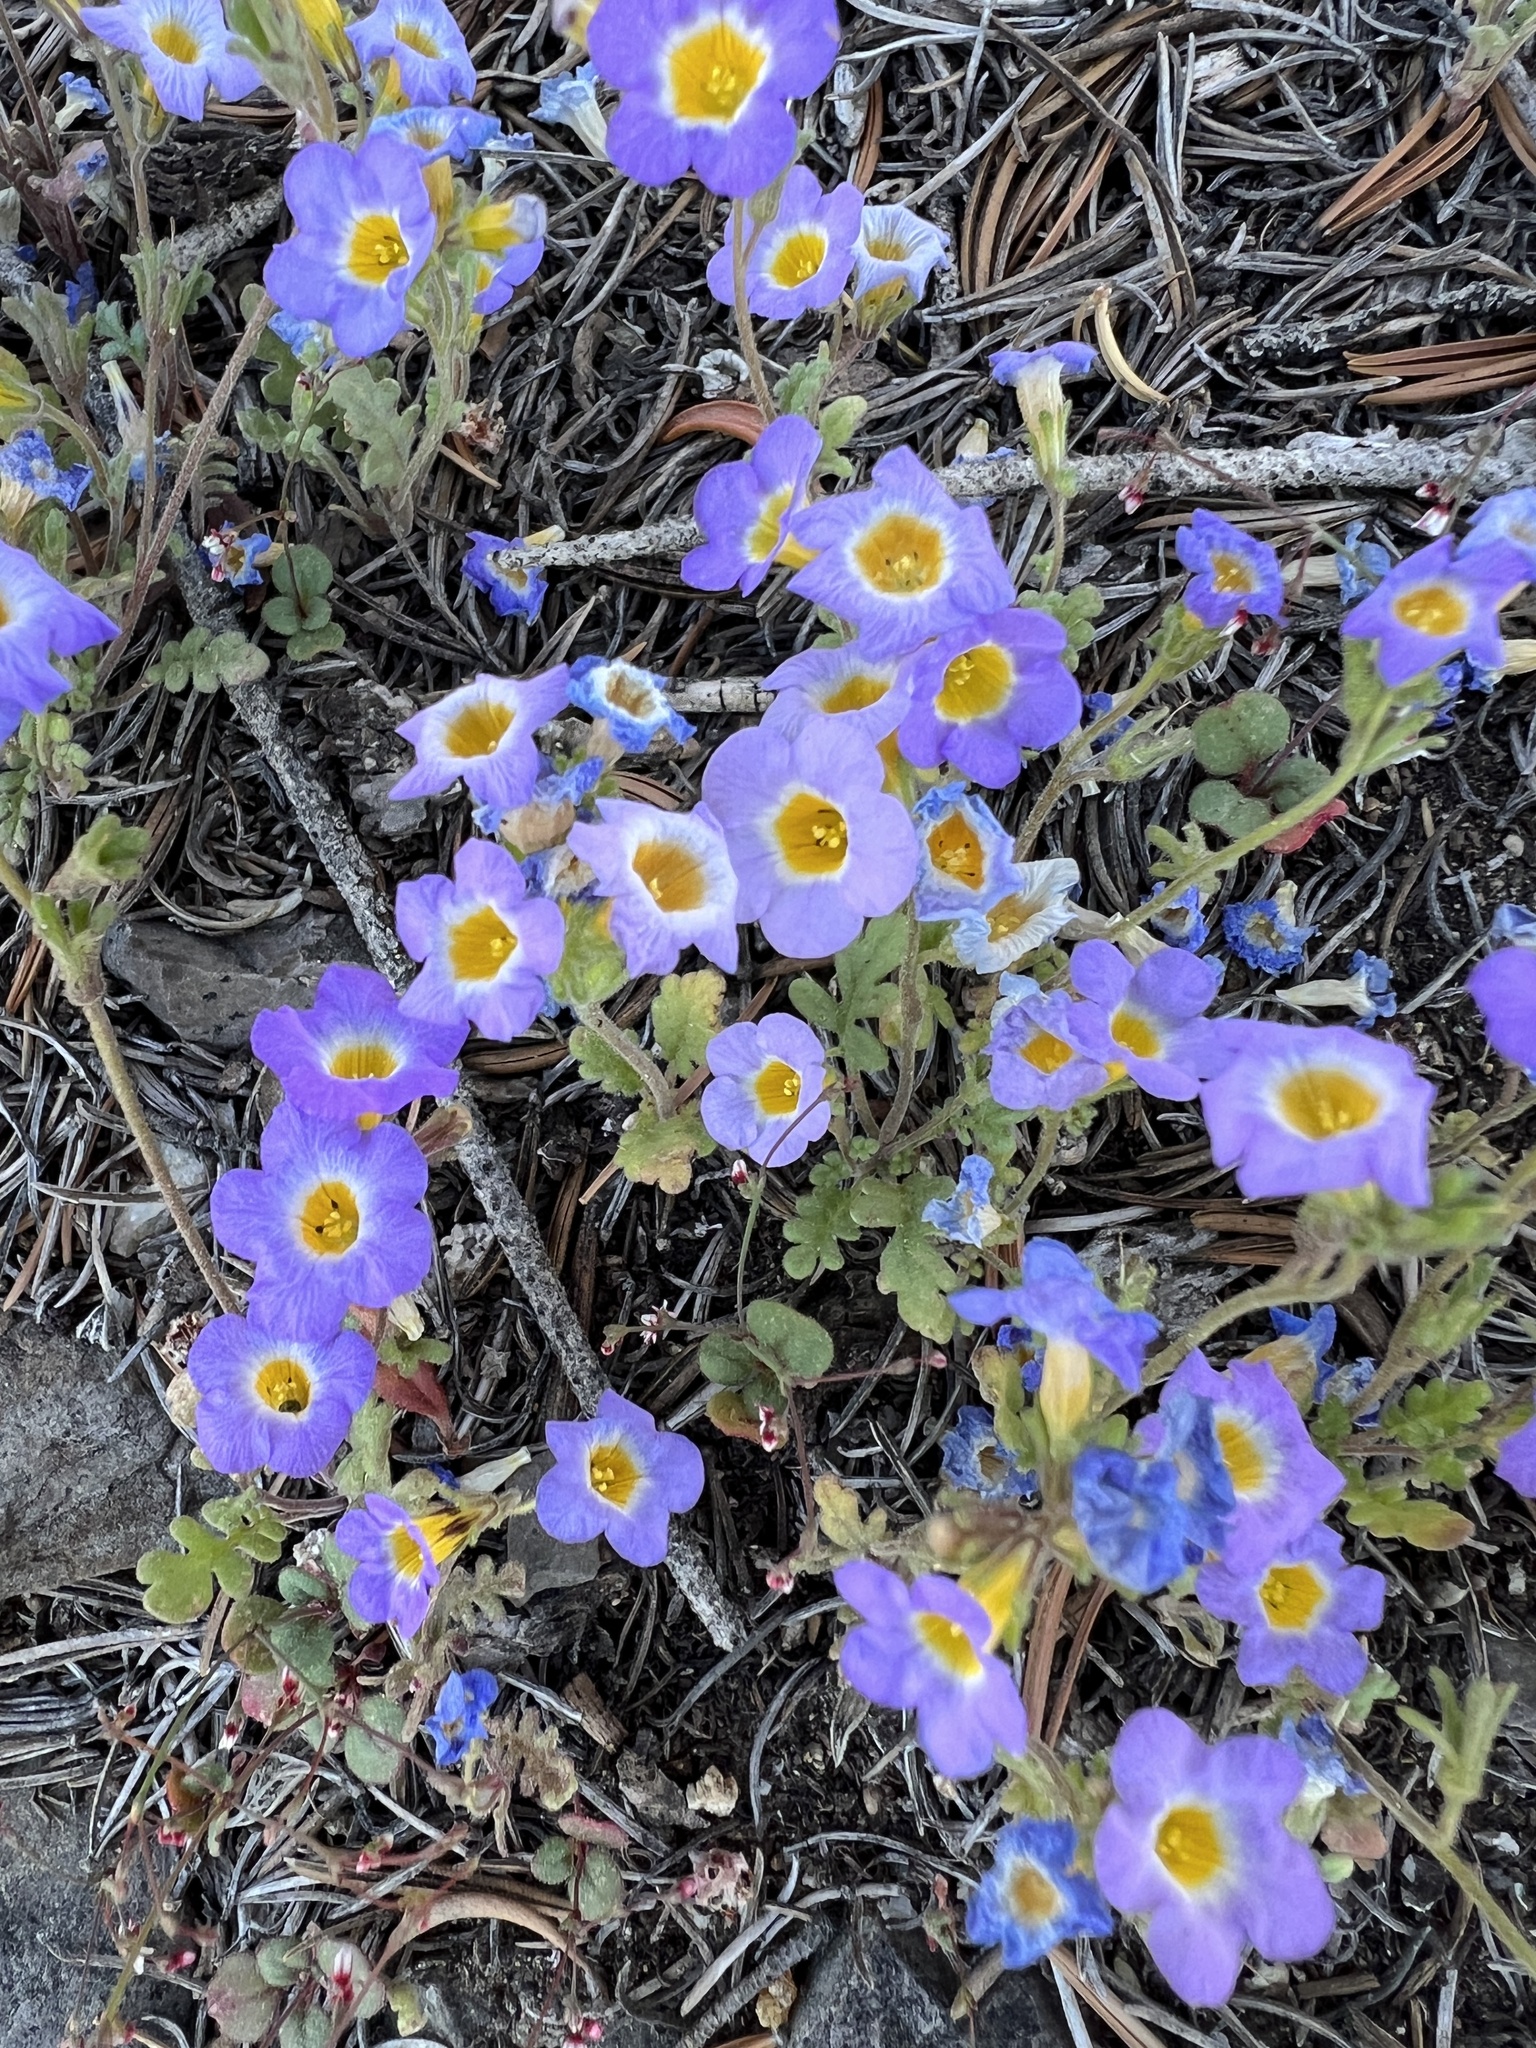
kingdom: Plantae
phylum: Tracheophyta
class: Magnoliopsida
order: Boraginales
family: Hydrophyllaceae
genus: Phacelia
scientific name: Phacelia fremontii
